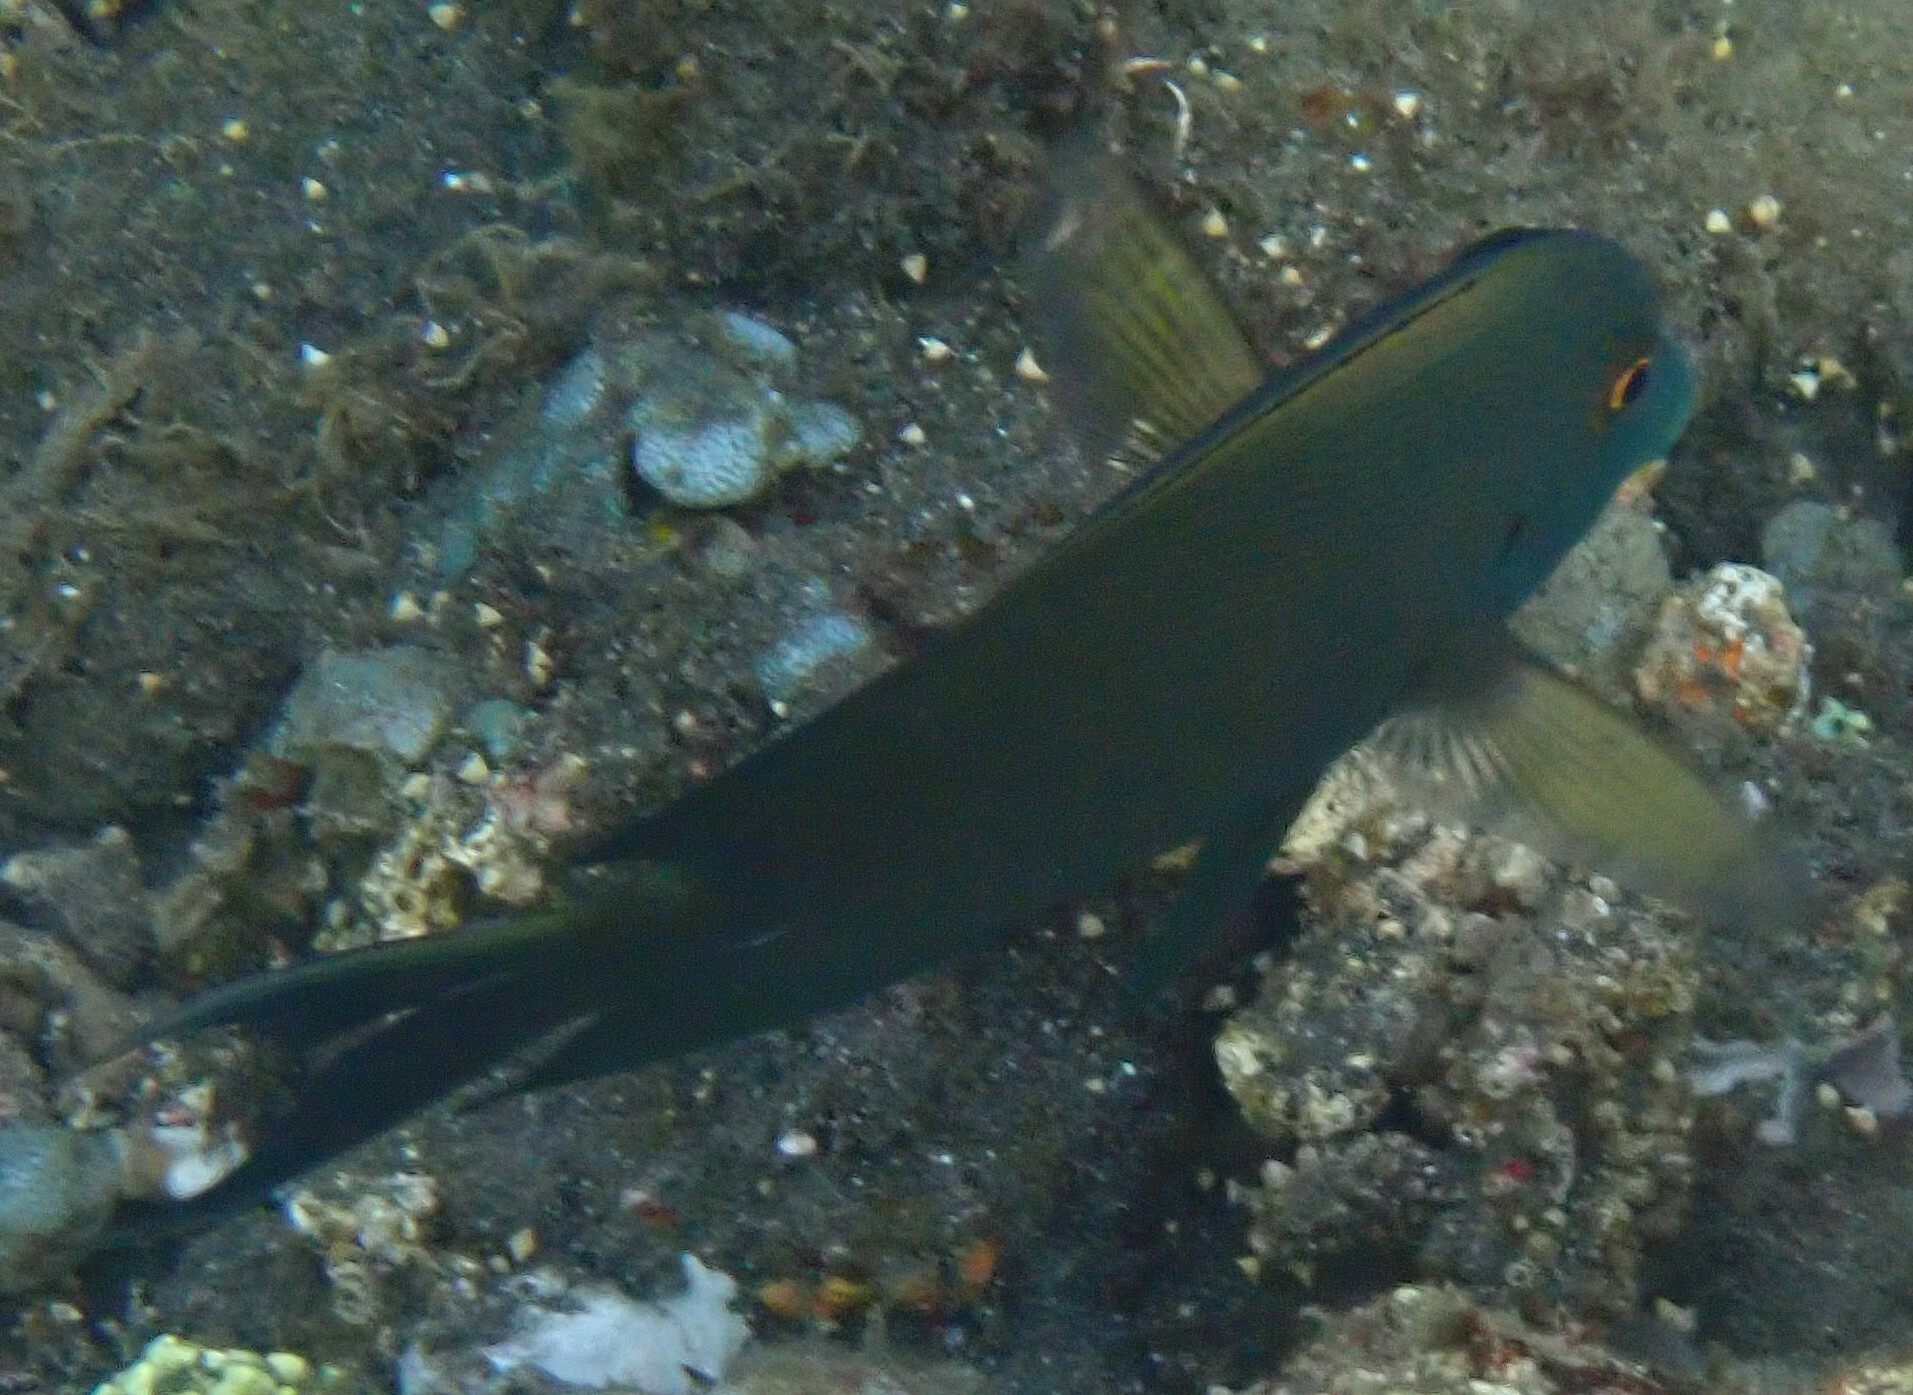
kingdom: Animalia
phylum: Chordata
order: Perciformes
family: Acanthuridae
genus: Ctenochaetus
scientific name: Ctenochaetus striatus
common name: Bristle-toothed surgeonfish
